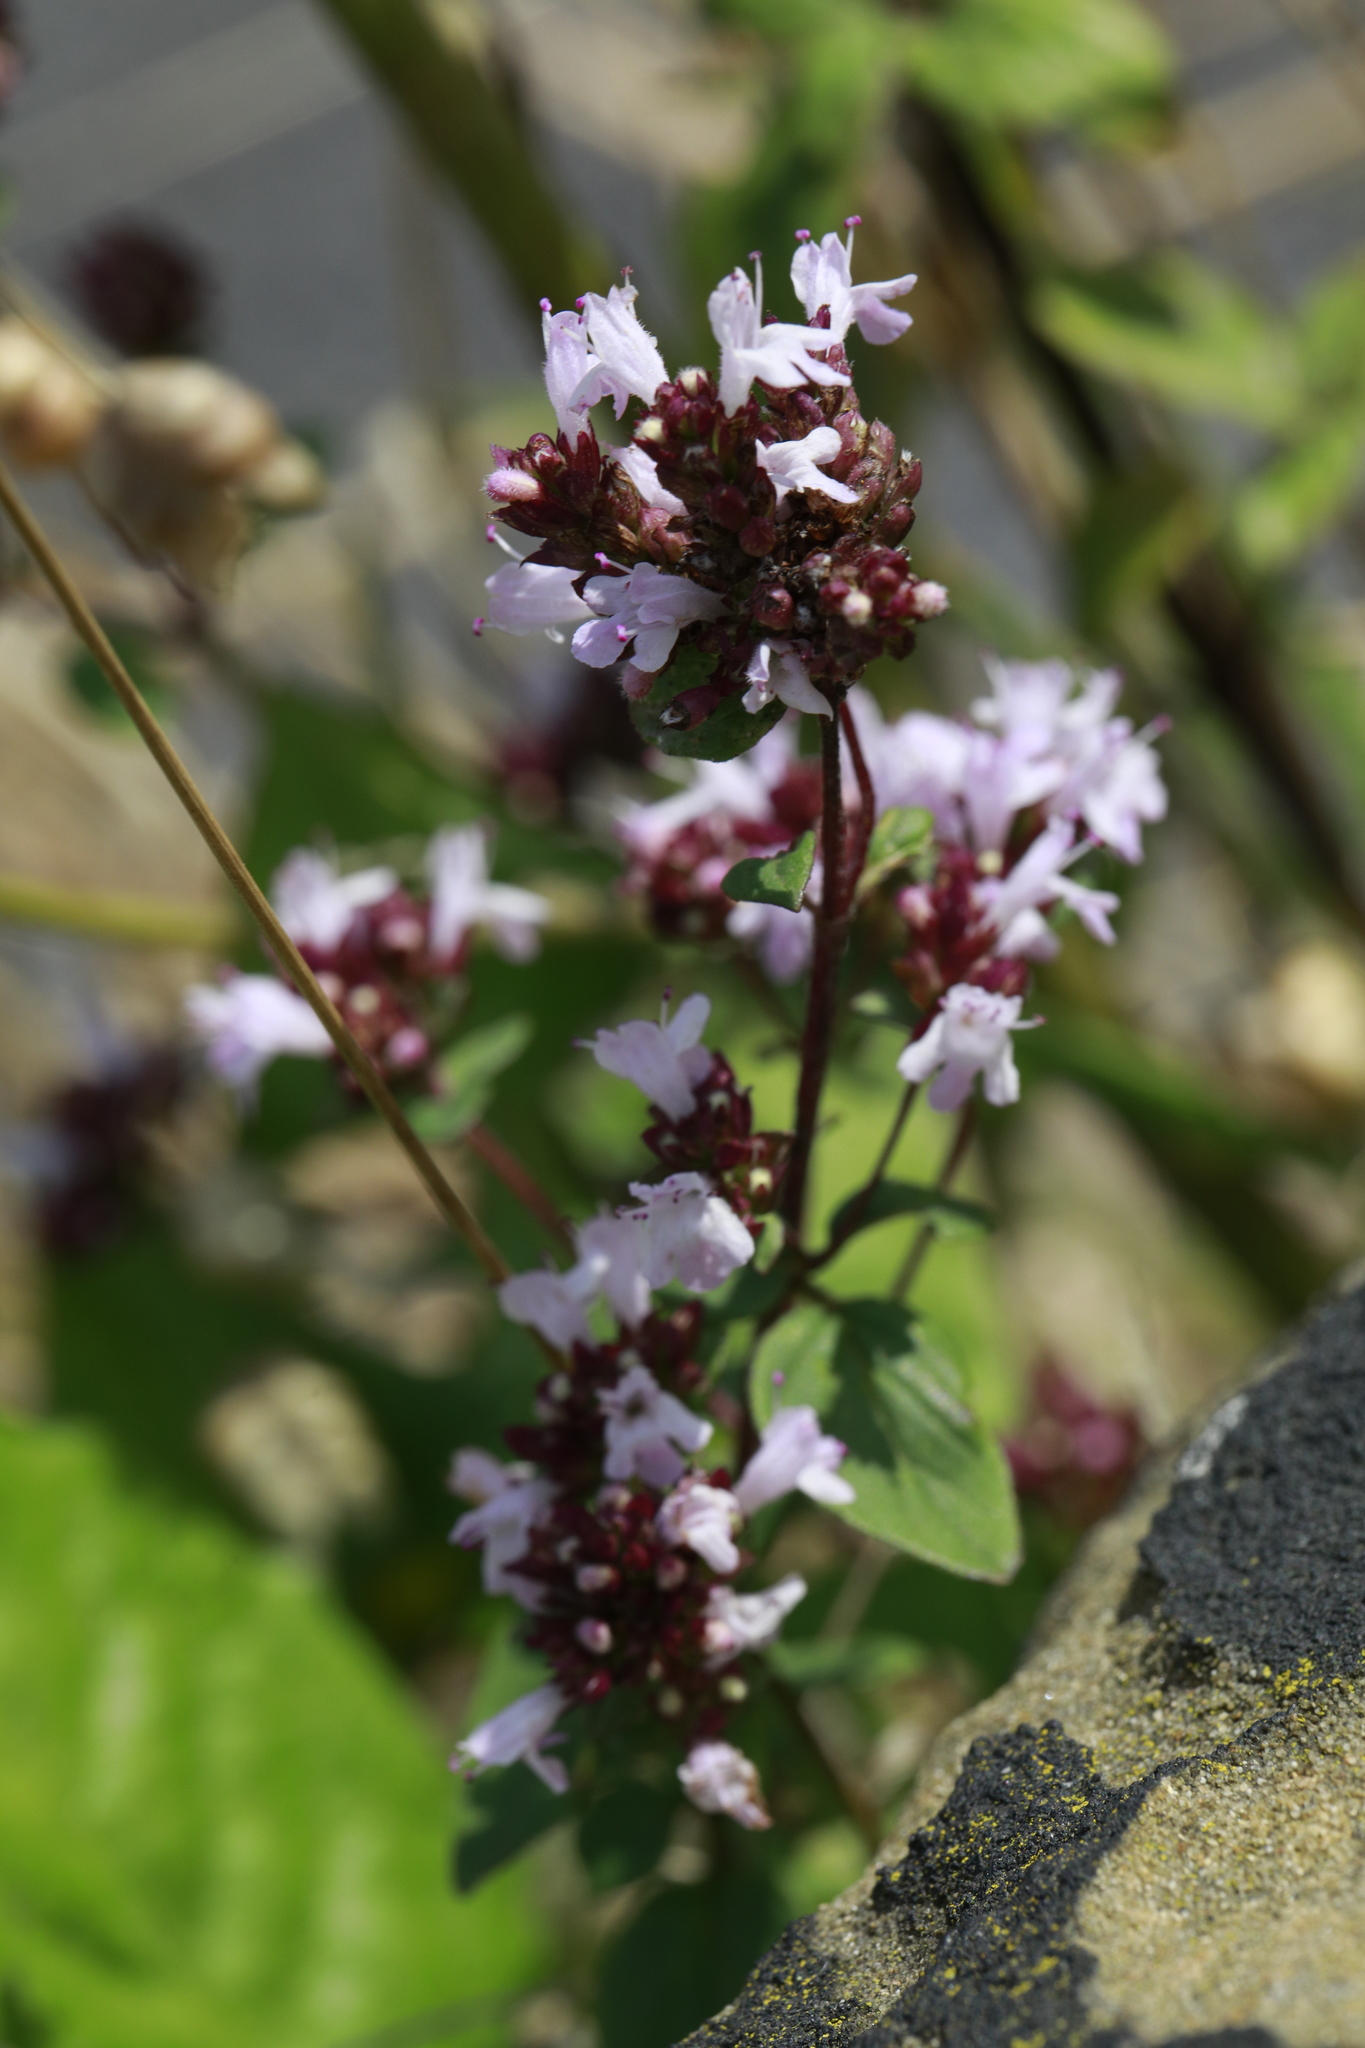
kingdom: Plantae
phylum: Tracheophyta
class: Magnoliopsida
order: Lamiales
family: Lamiaceae
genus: Origanum
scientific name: Origanum vulgare
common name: Wild marjoram
